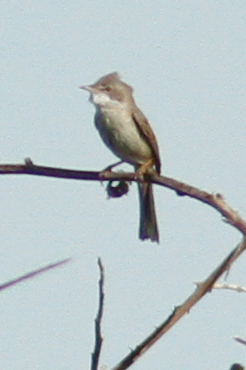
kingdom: Animalia
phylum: Chordata
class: Aves
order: Passeriformes
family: Sylviidae
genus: Sylvia
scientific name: Sylvia communis
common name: Common whitethroat
